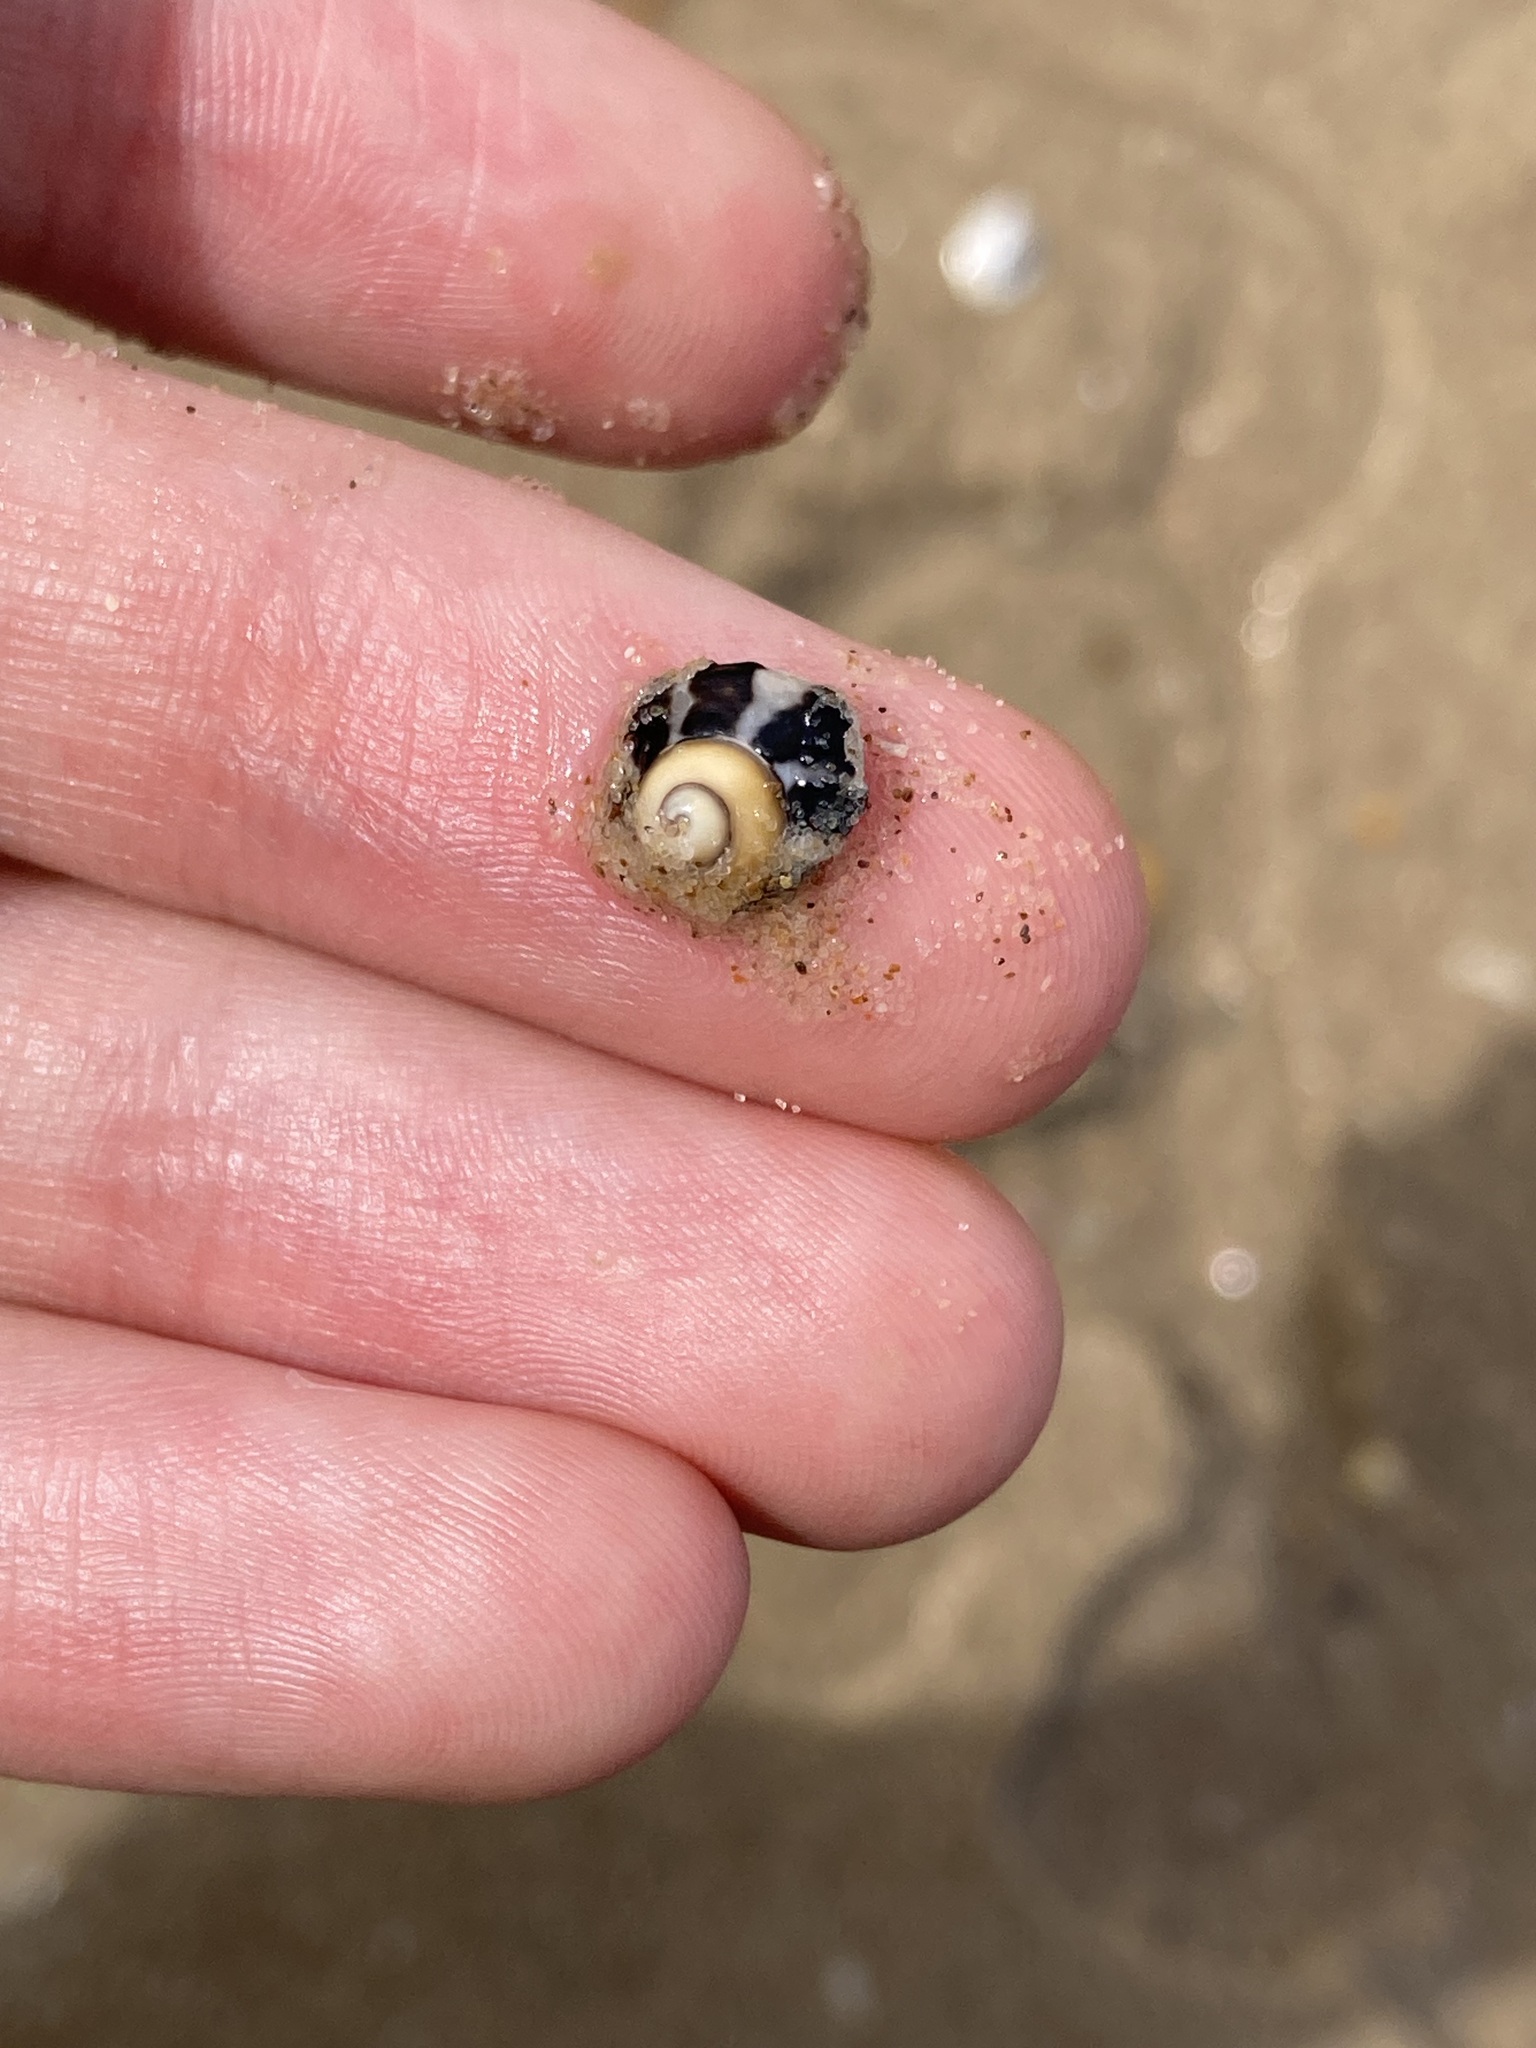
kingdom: Animalia
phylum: Mollusca
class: Gastropoda
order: Trochida
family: Trochidae
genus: Austrocochlea
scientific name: Austrocochlea porcata
